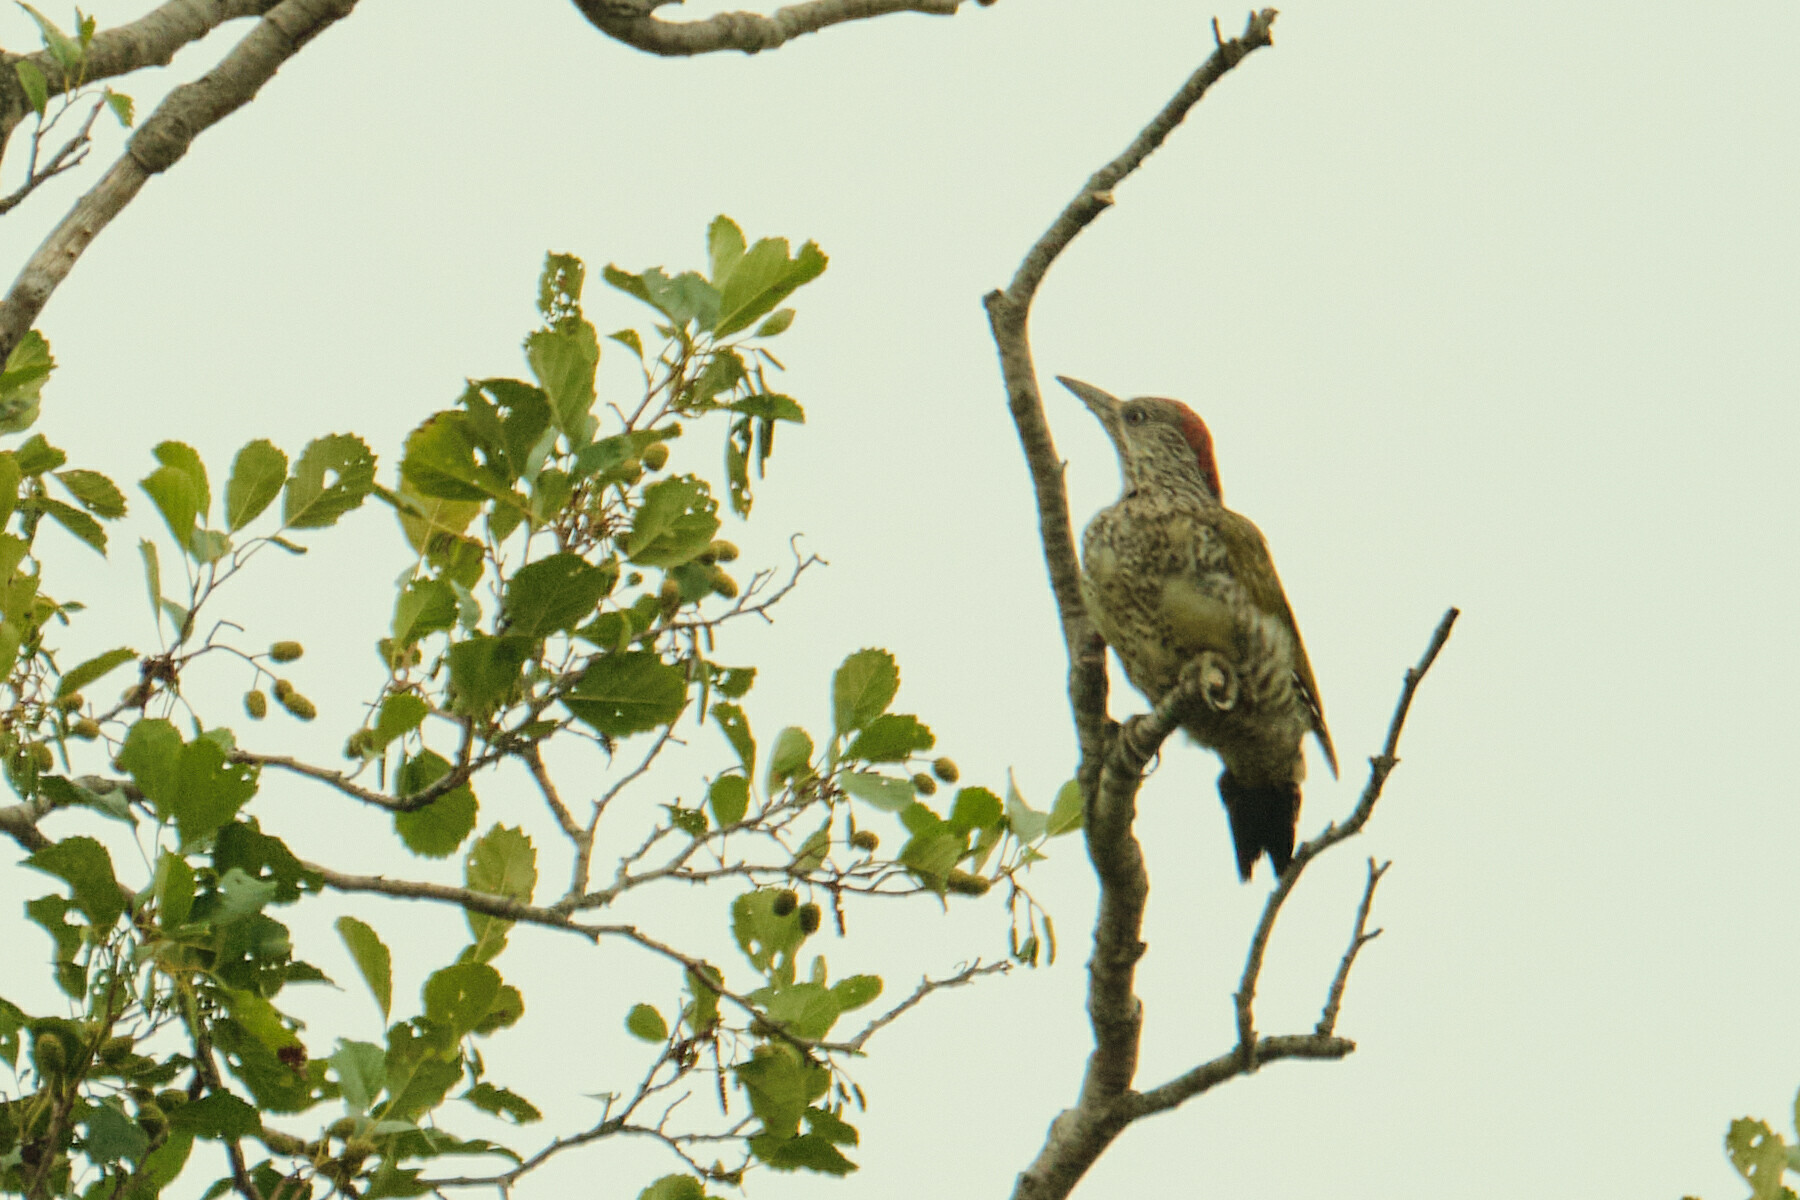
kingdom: Animalia
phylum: Chordata
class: Aves
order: Piciformes
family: Picidae
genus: Picus
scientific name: Picus viridis
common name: European green woodpecker
